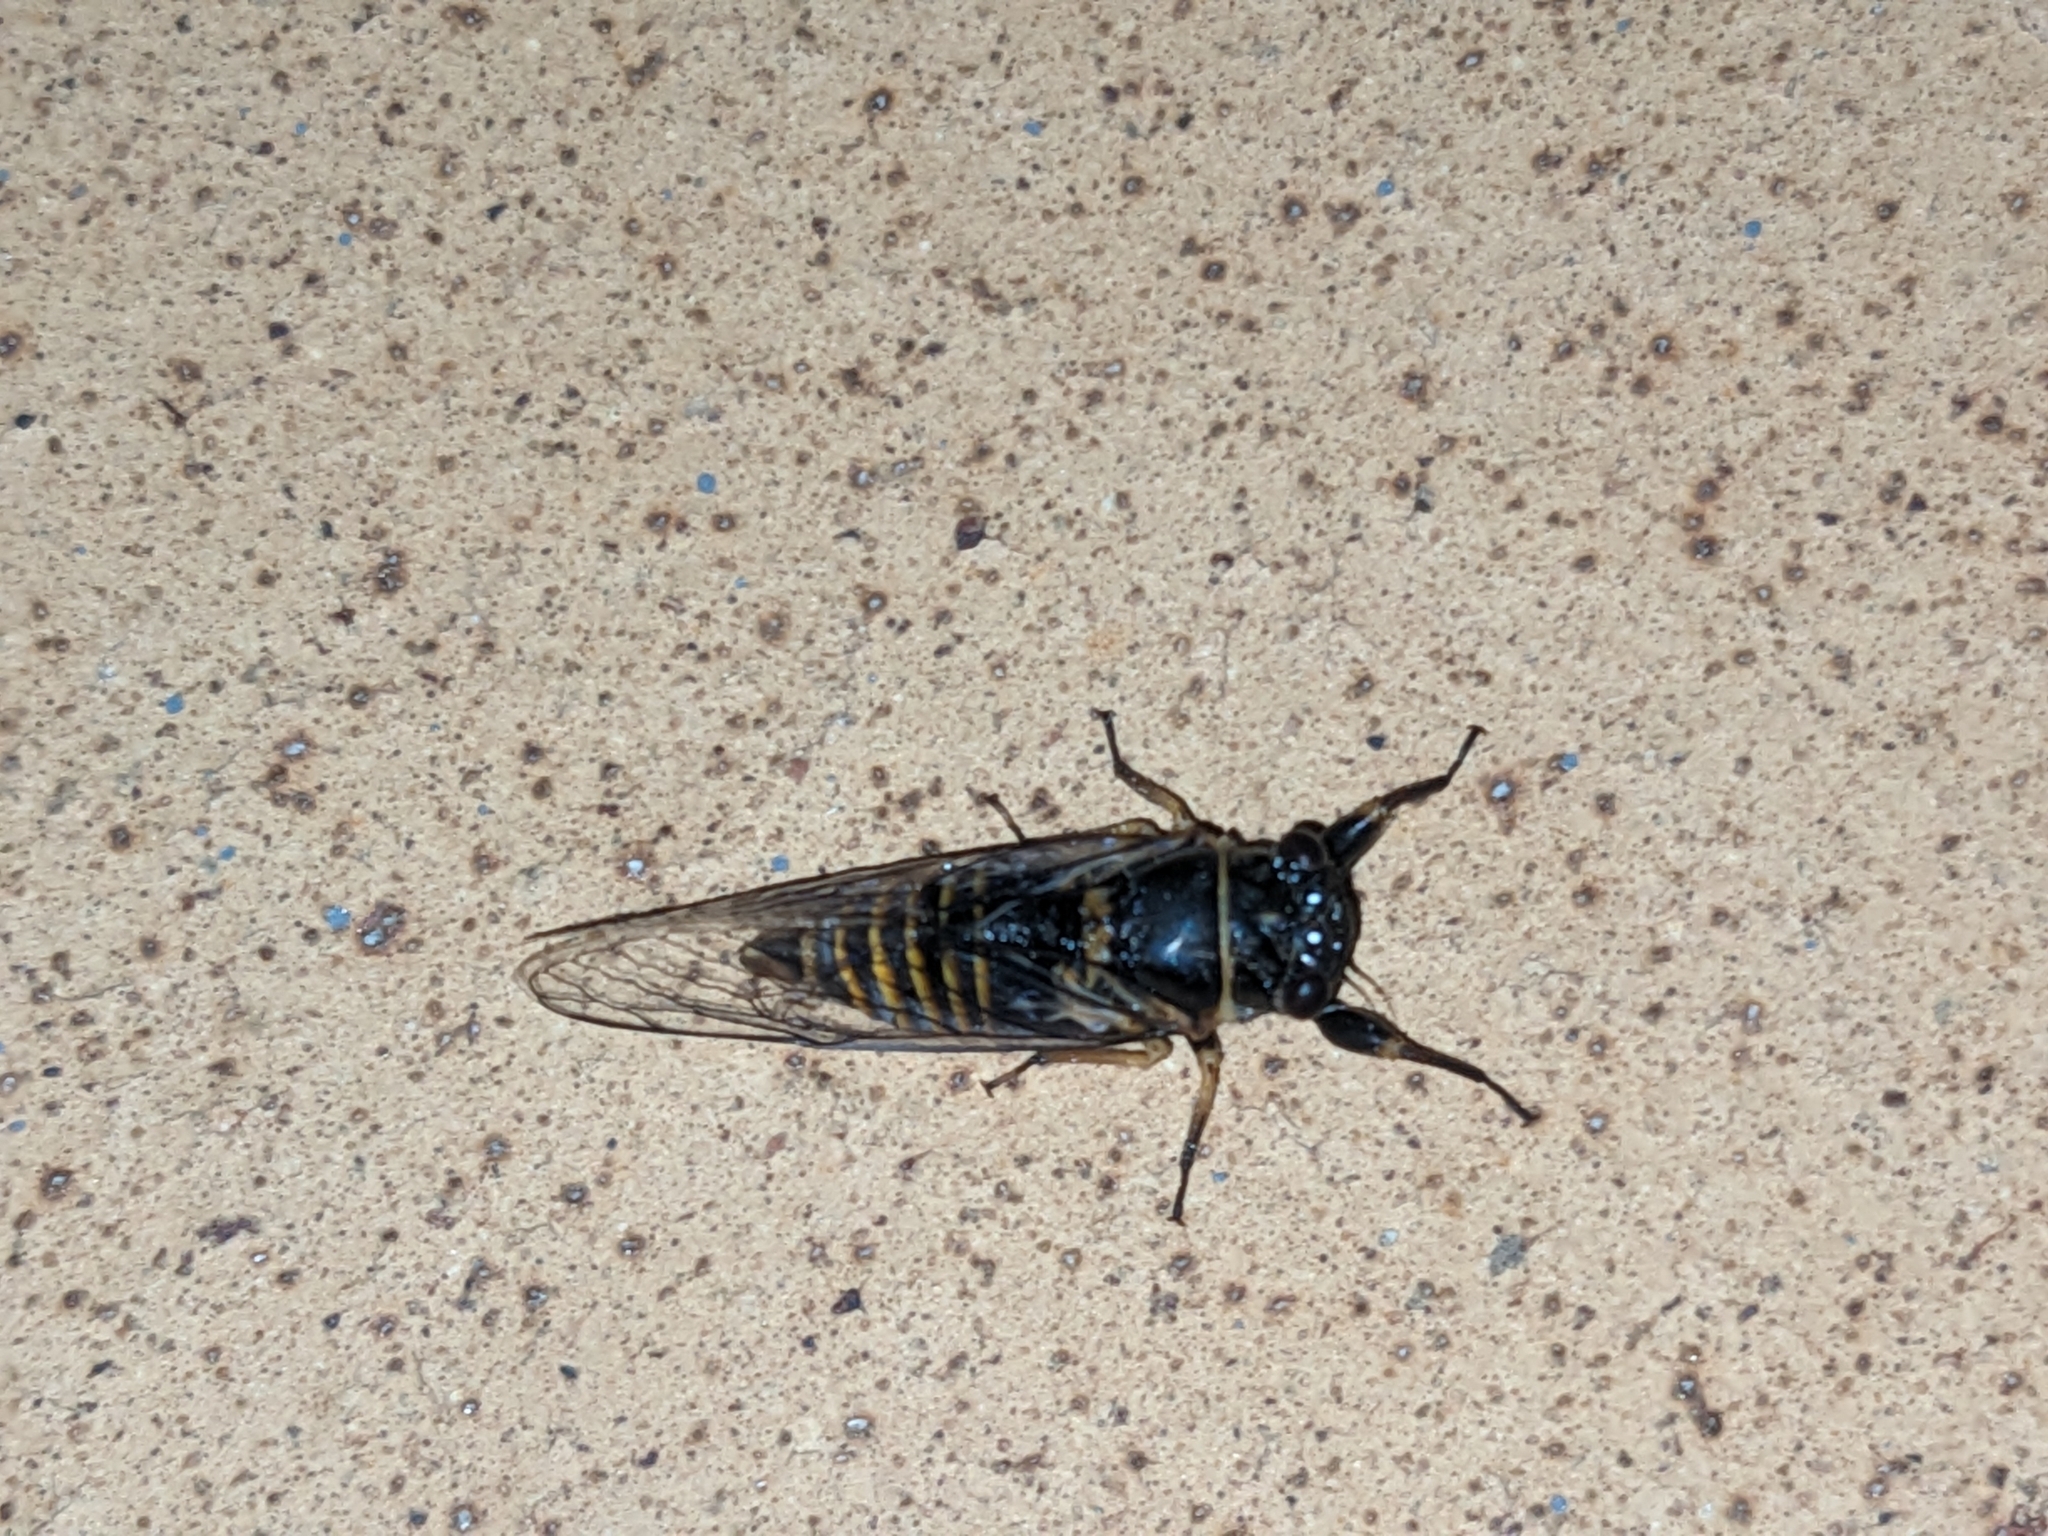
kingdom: Animalia
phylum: Arthropoda
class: Insecta
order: Hemiptera
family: Cicadidae
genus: Popplepsalta
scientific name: Popplepsalta ayrensis
